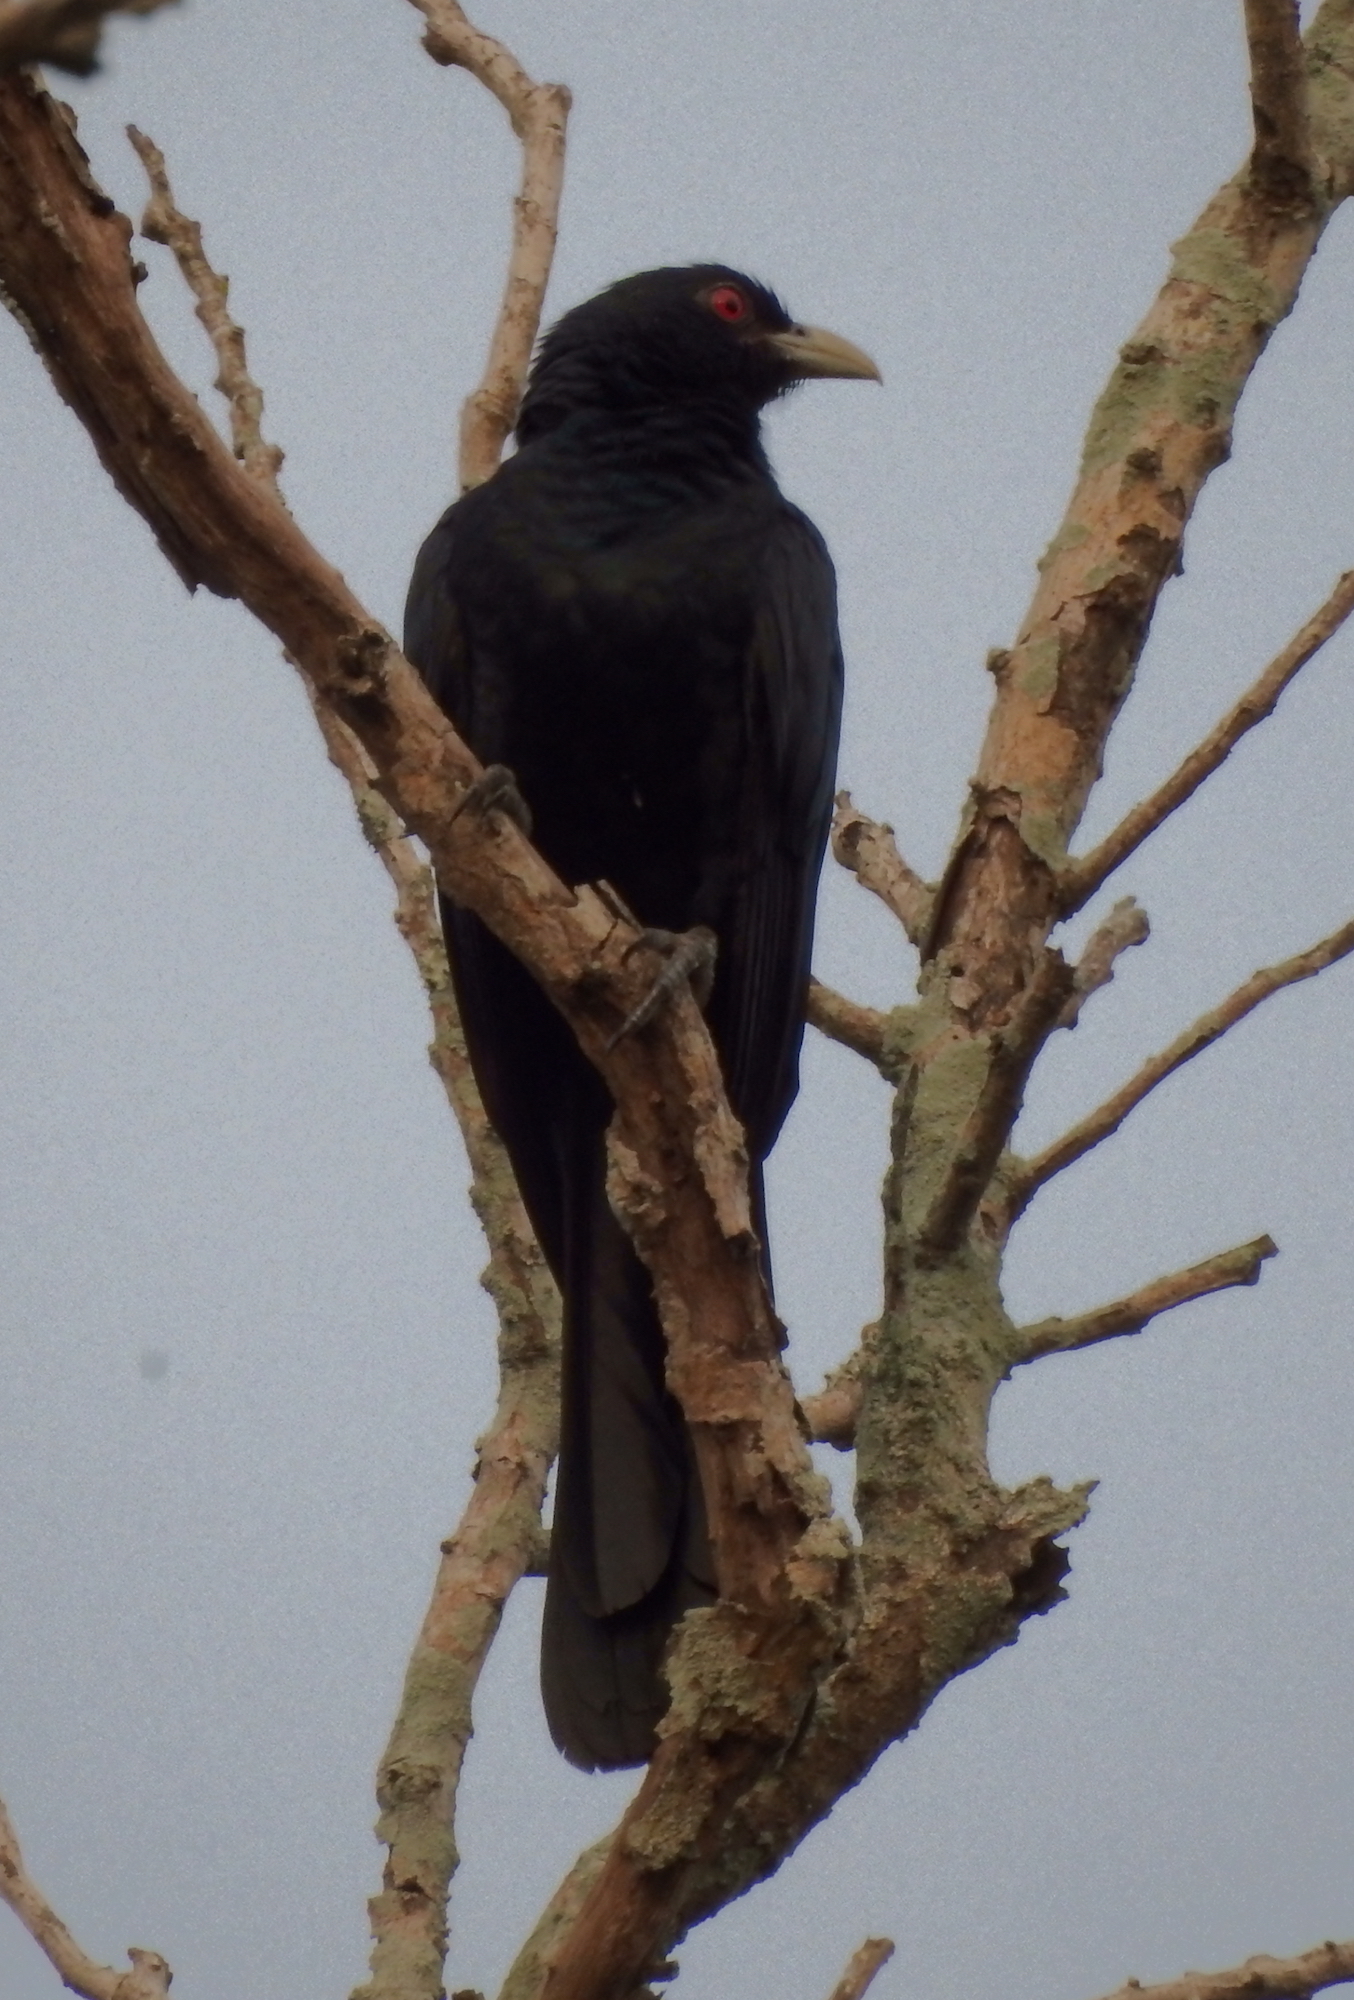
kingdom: Animalia
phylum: Chordata
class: Aves
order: Cuculiformes
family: Cuculidae
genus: Eudynamys
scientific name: Eudynamys scolopaceus
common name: Asian koel
